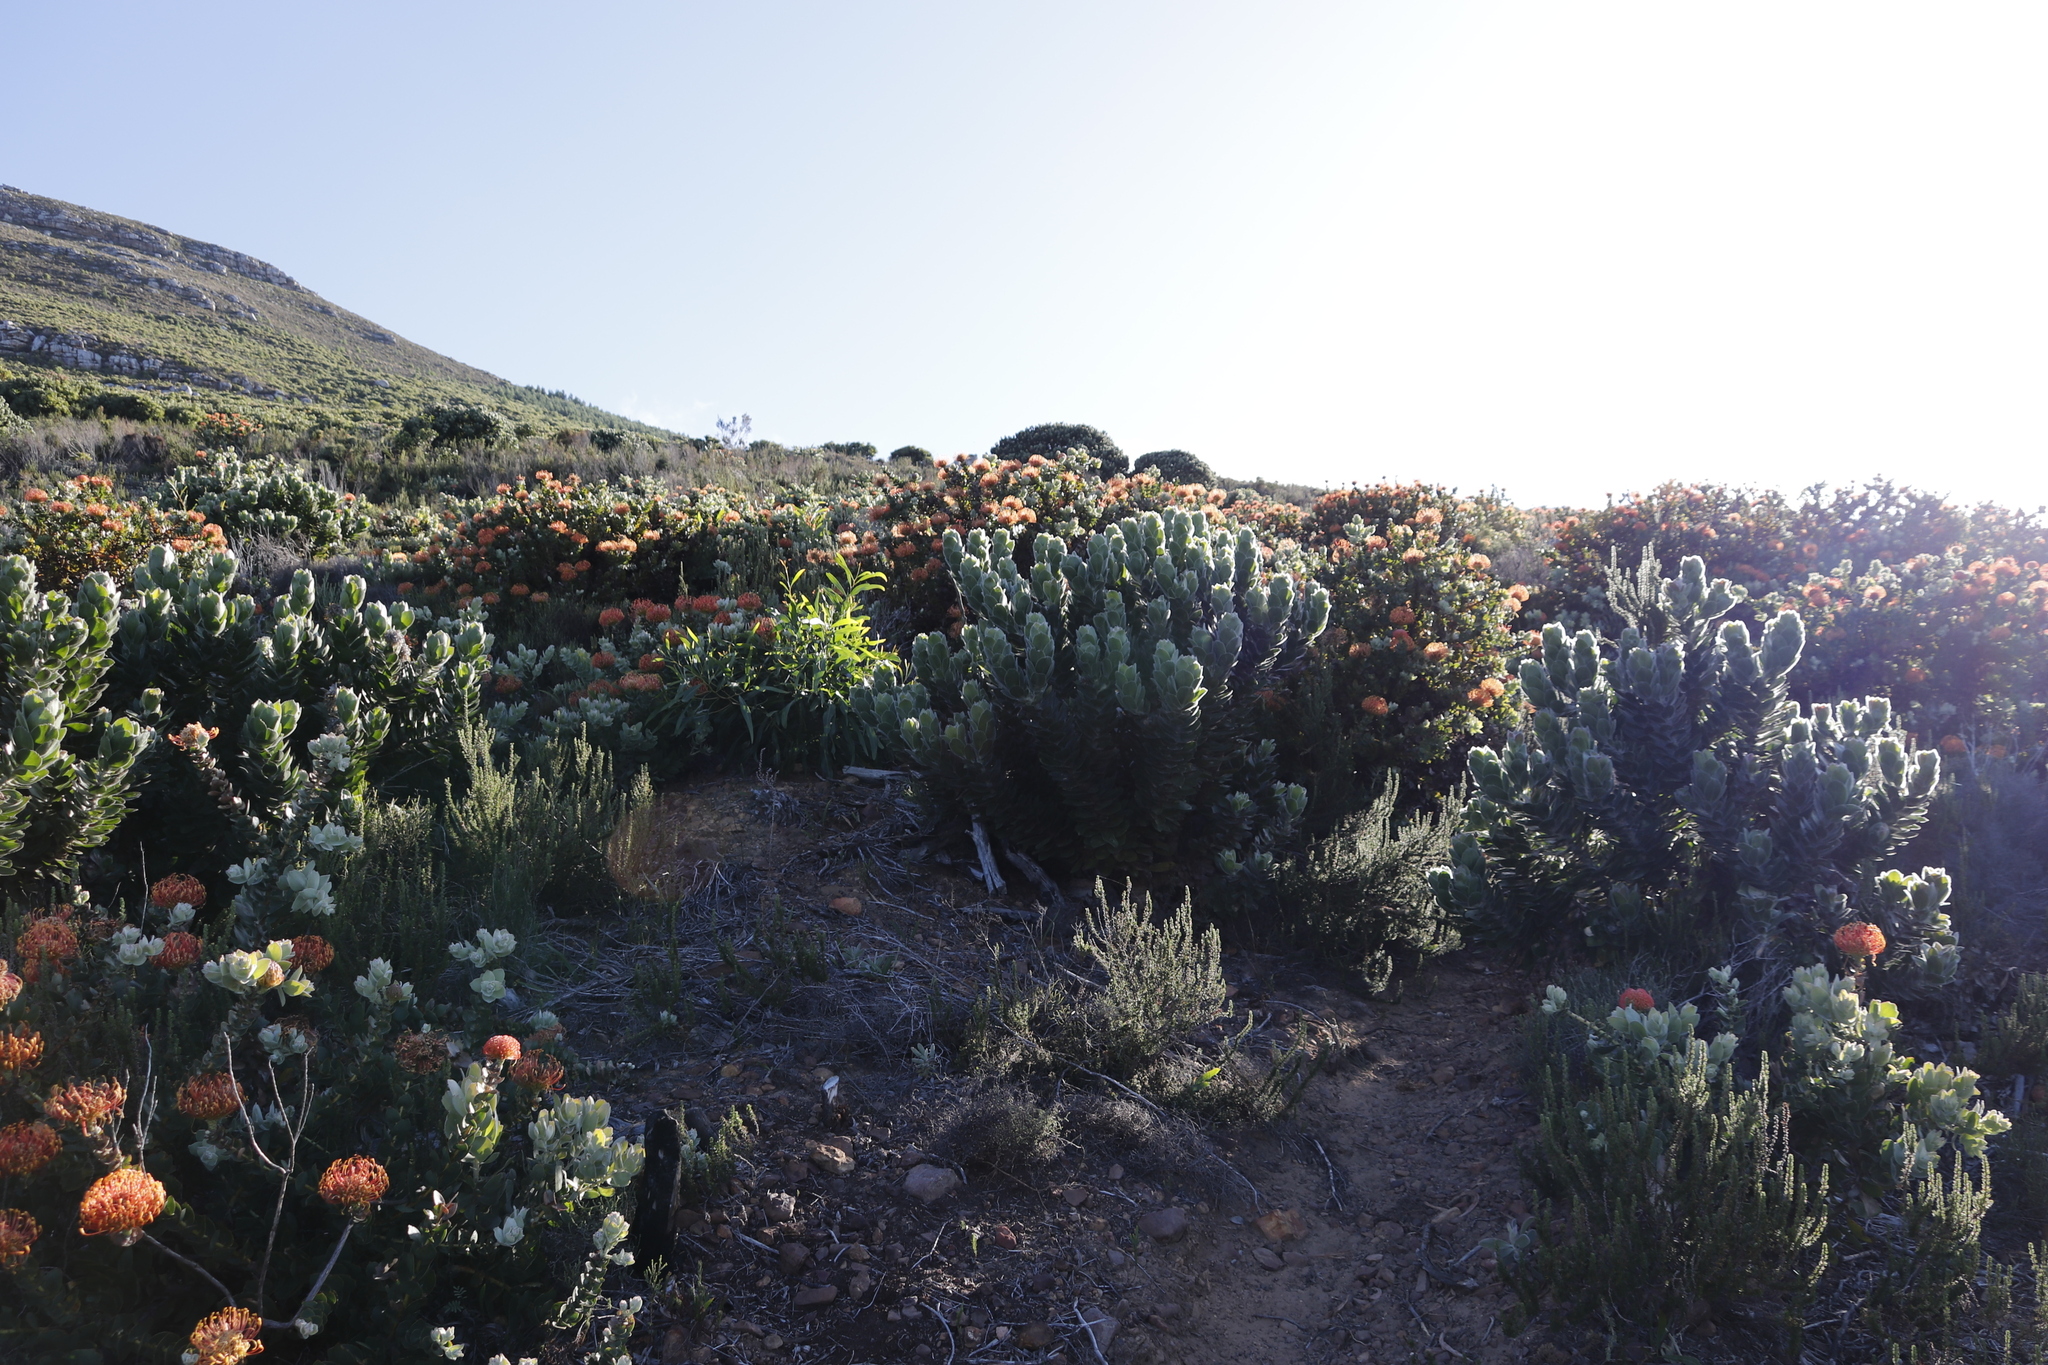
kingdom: Plantae
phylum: Tracheophyta
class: Magnoliopsida
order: Proteales
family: Proteaceae
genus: Leucospermum
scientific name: Leucospermum cordifolium
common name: Red pincushion-protea
